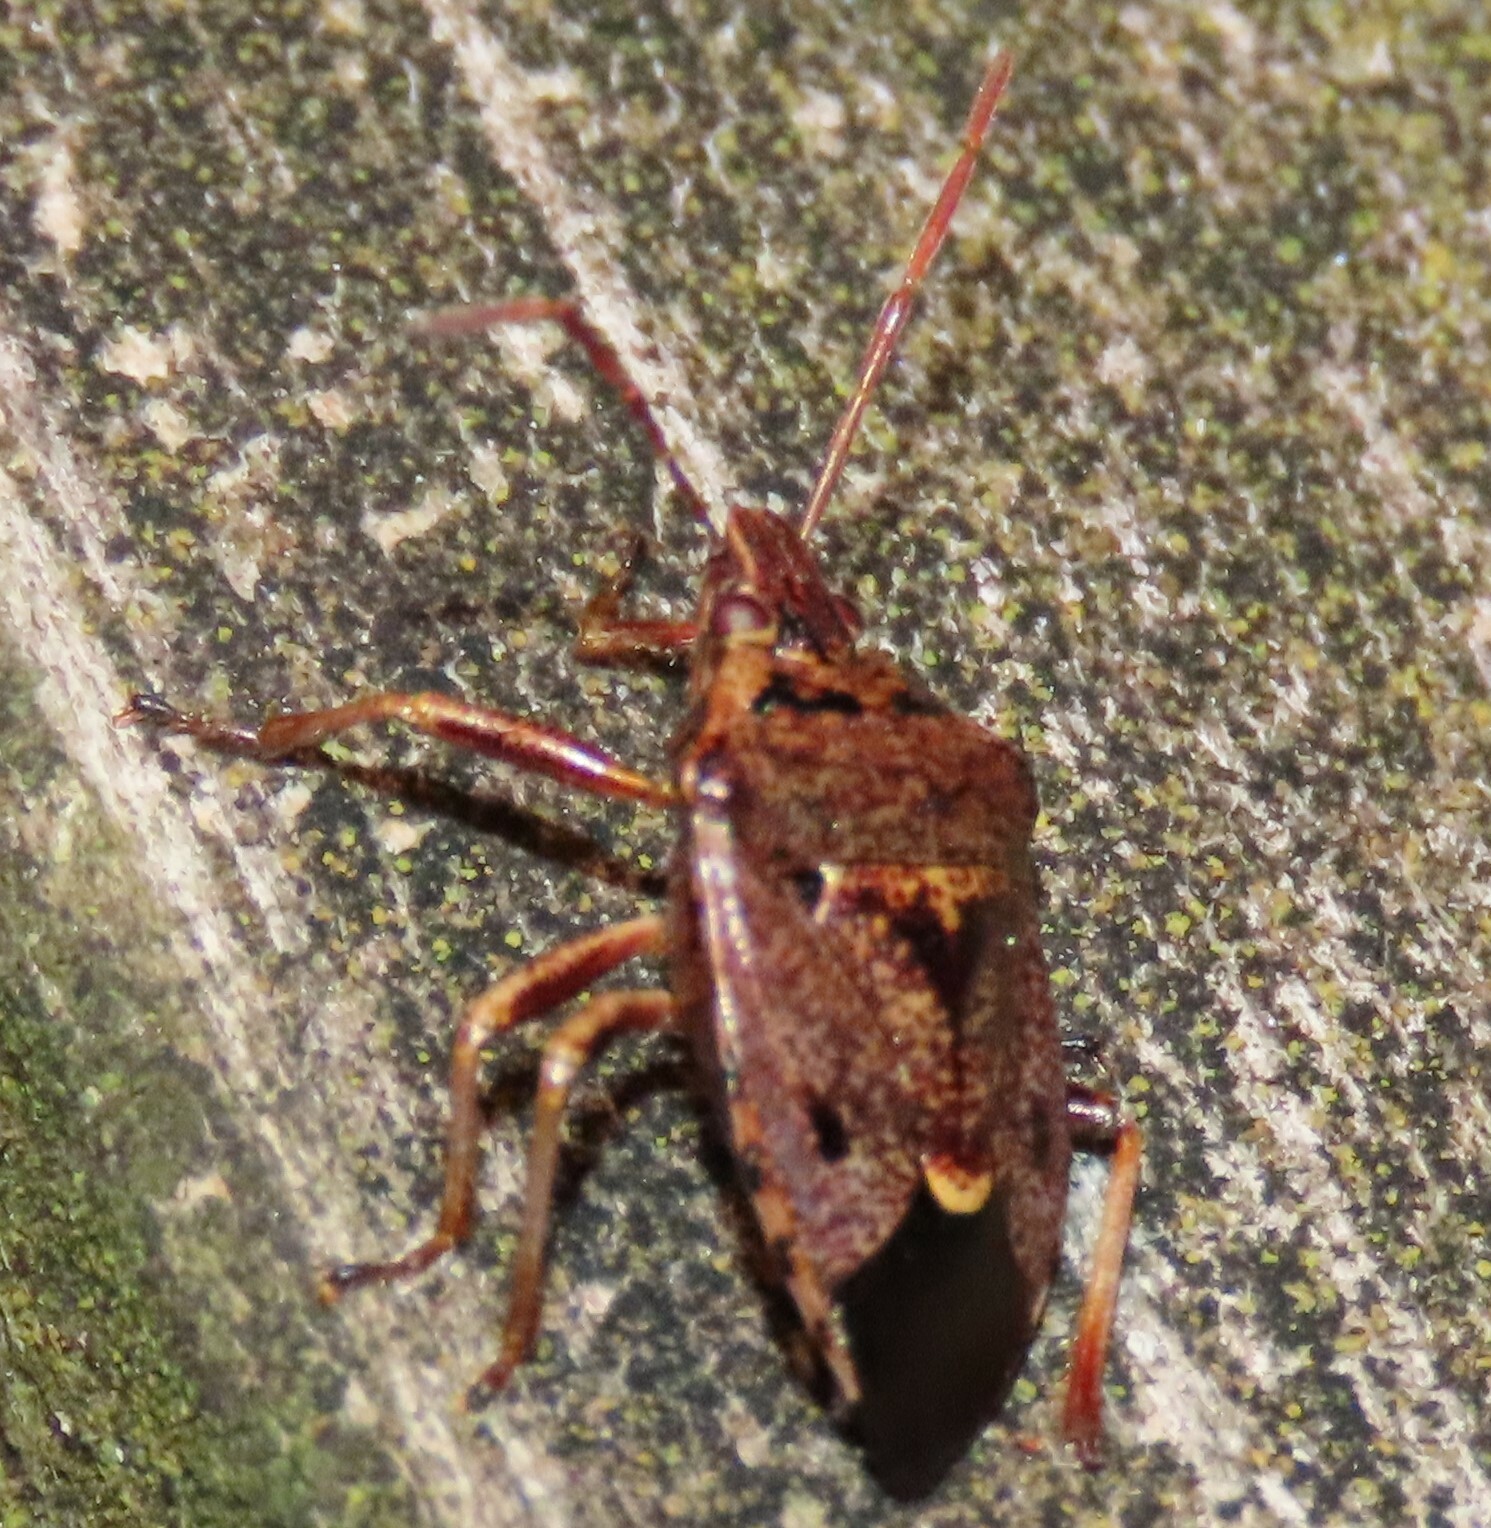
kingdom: Animalia
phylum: Arthropoda
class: Insecta
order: Hemiptera
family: Pentatomidae
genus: Cermatulus
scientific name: Cermatulus nasalis
